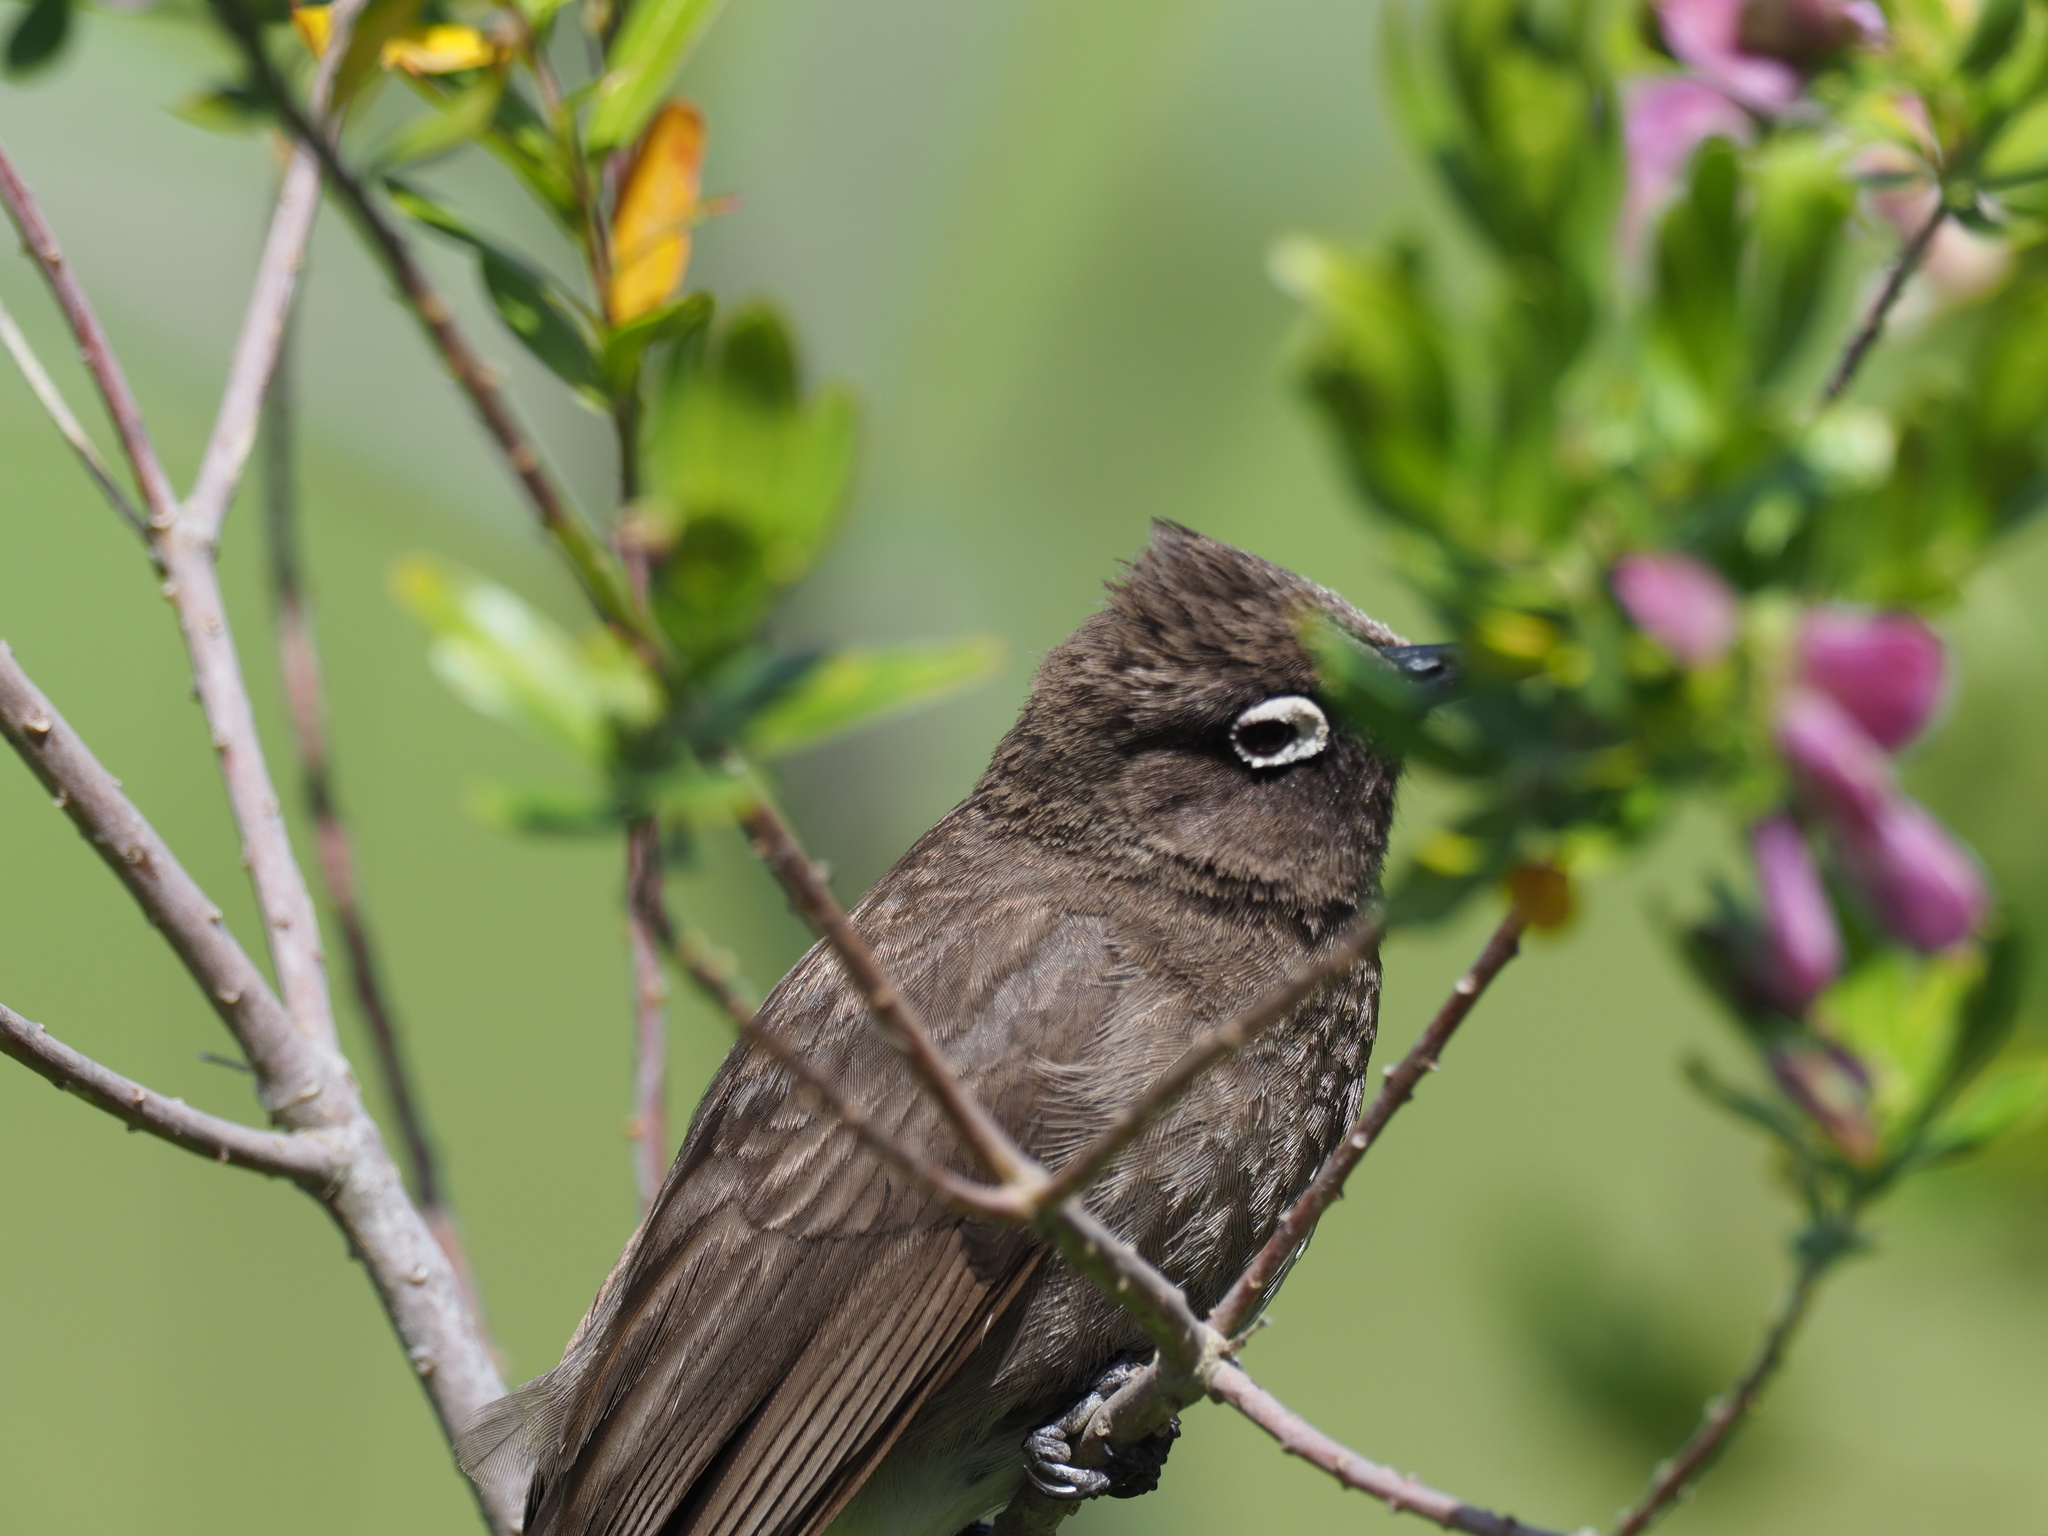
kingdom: Animalia
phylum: Chordata
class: Aves
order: Passeriformes
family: Pycnonotidae
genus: Pycnonotus
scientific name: Pycnonotus capensis
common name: Cape bulbul
